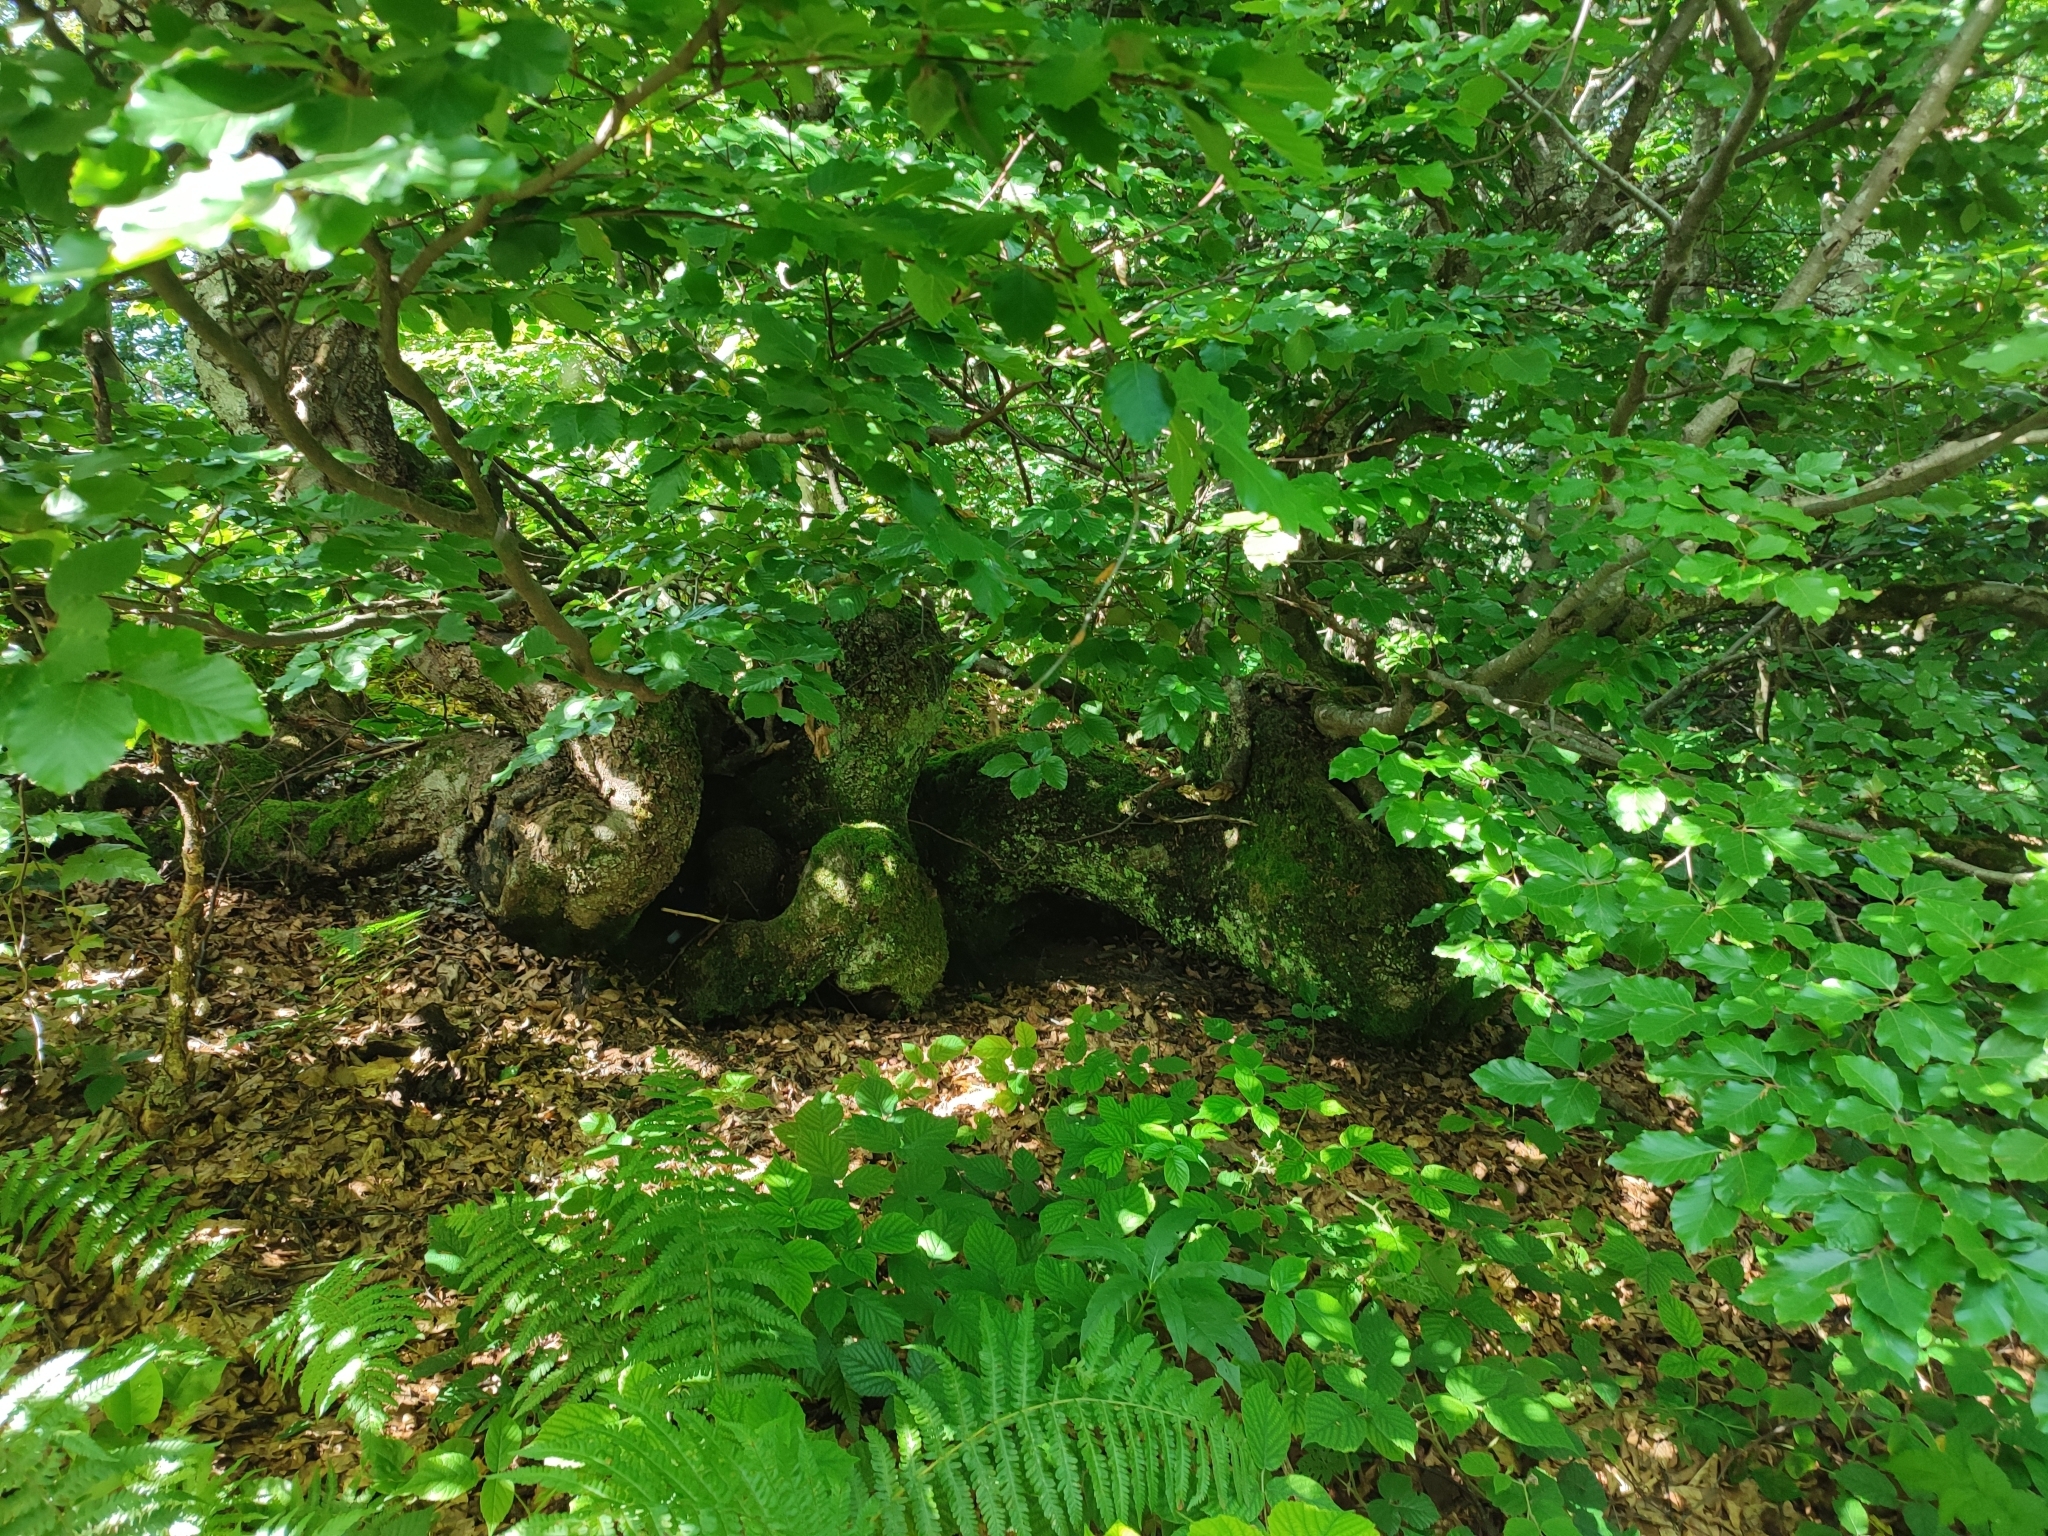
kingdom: Plantae
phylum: Tracheophyta
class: Magnoliopsida
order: Fagales
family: Fagaceae
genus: Fagus
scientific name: Fagus sylvatica
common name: Beech
